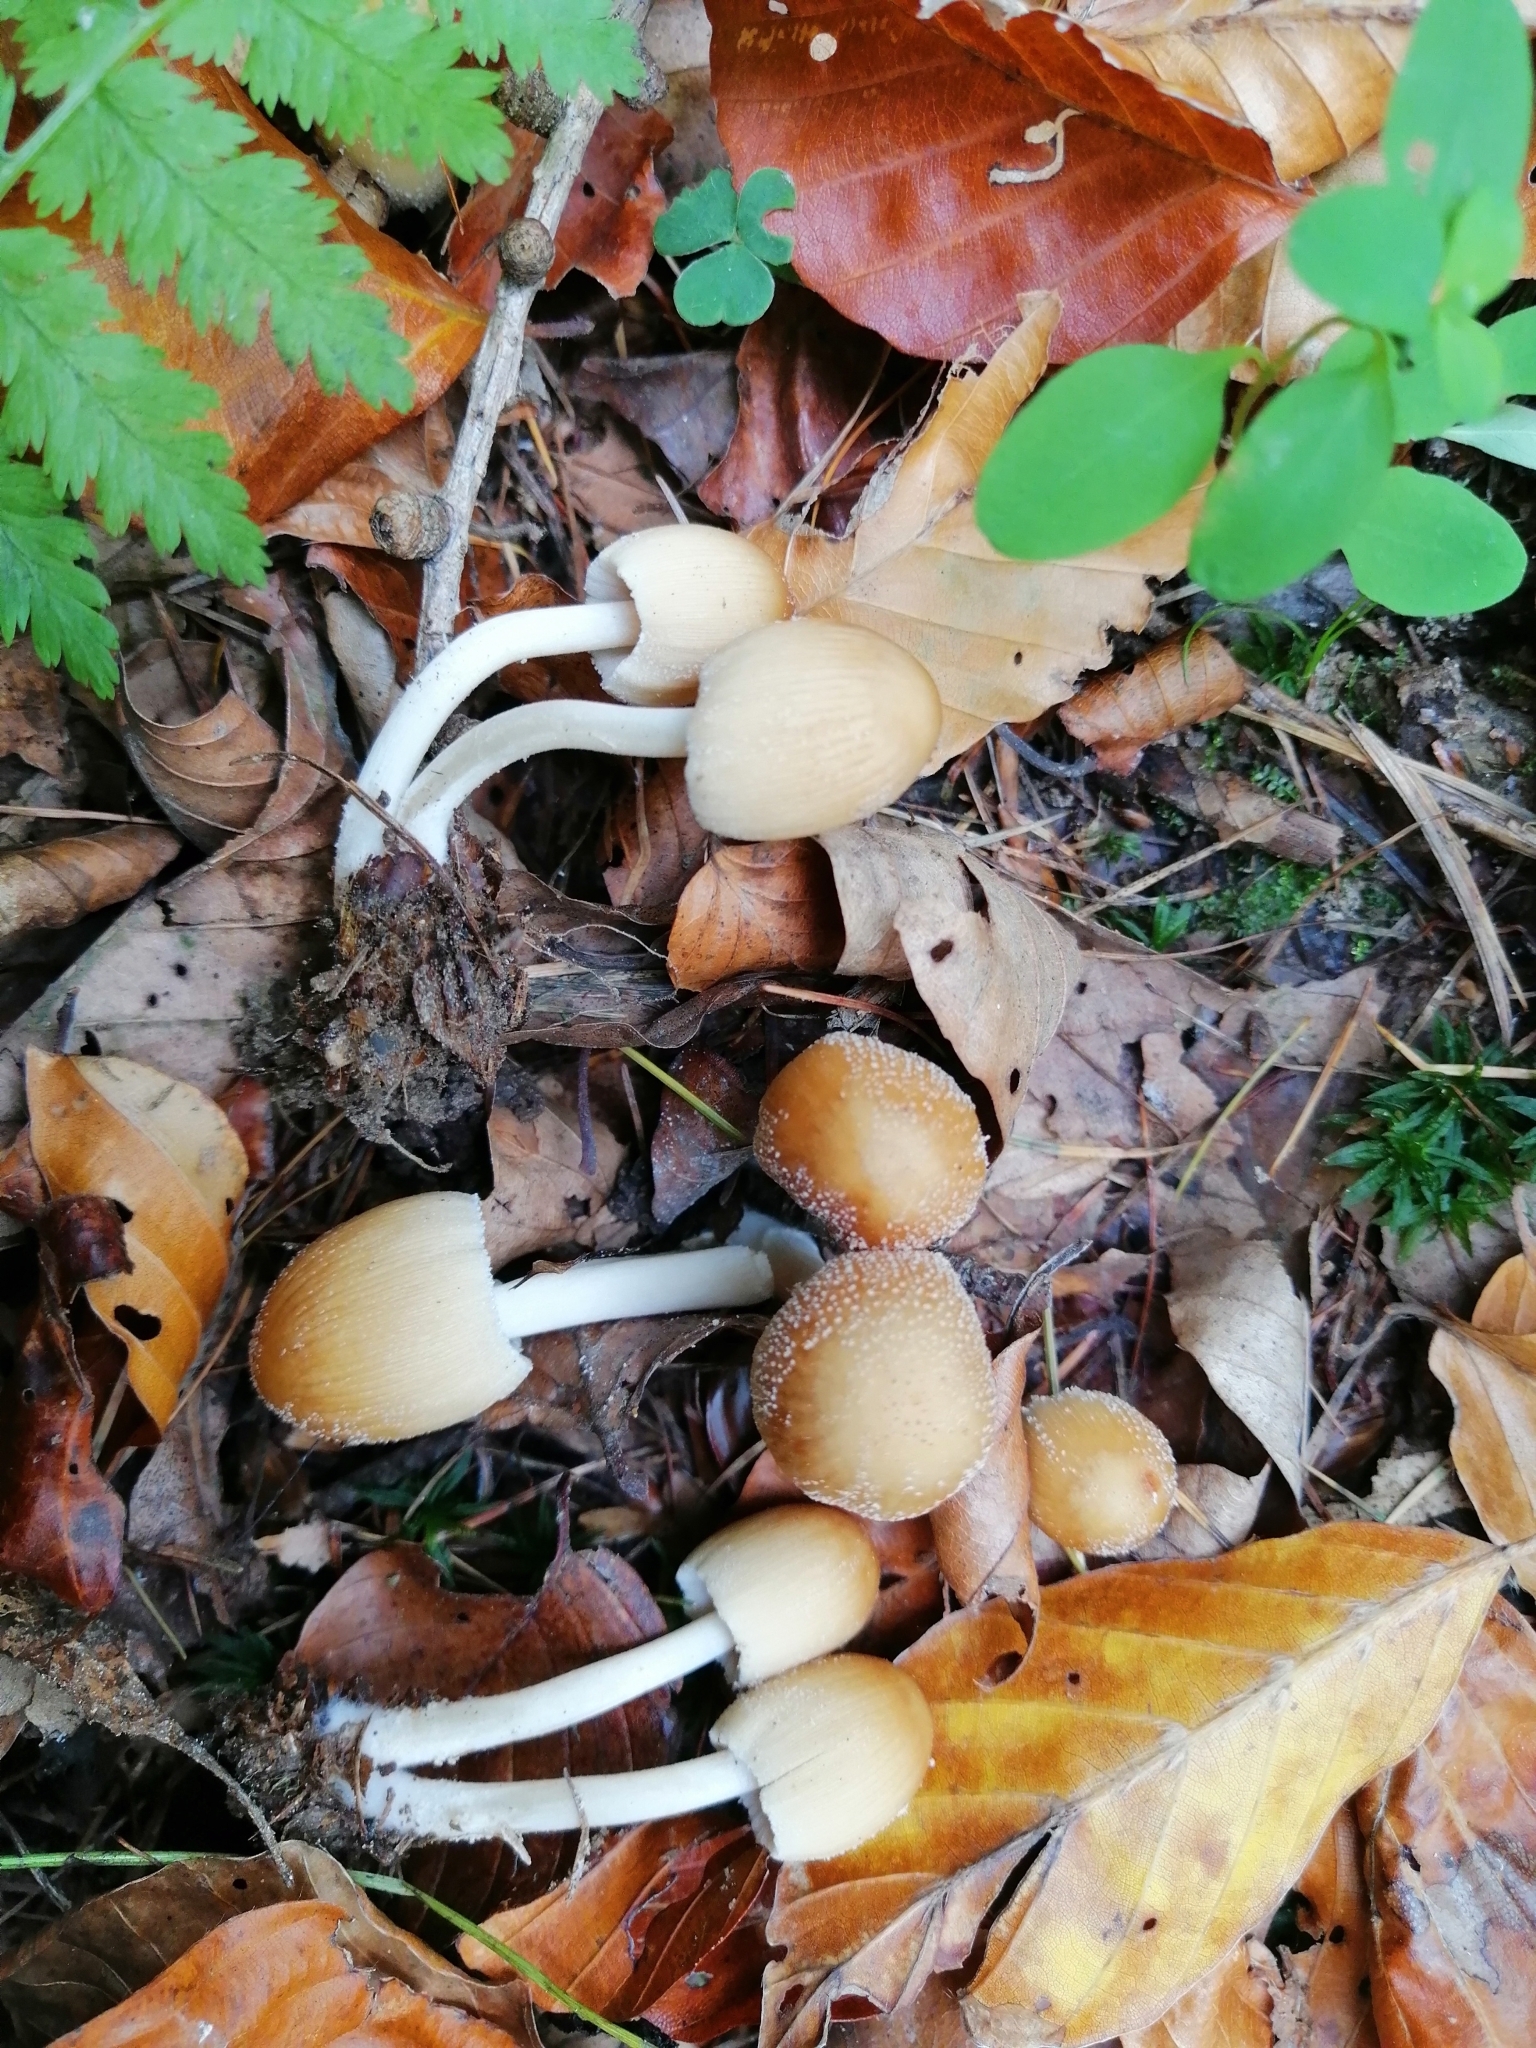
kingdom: Fungi
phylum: Basidiomycota
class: Agaricomycetes
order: Agaricales
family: Psathyrellaceae
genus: Coprinellus
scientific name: Coprinellus micaceus
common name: Glistening ink-cap
